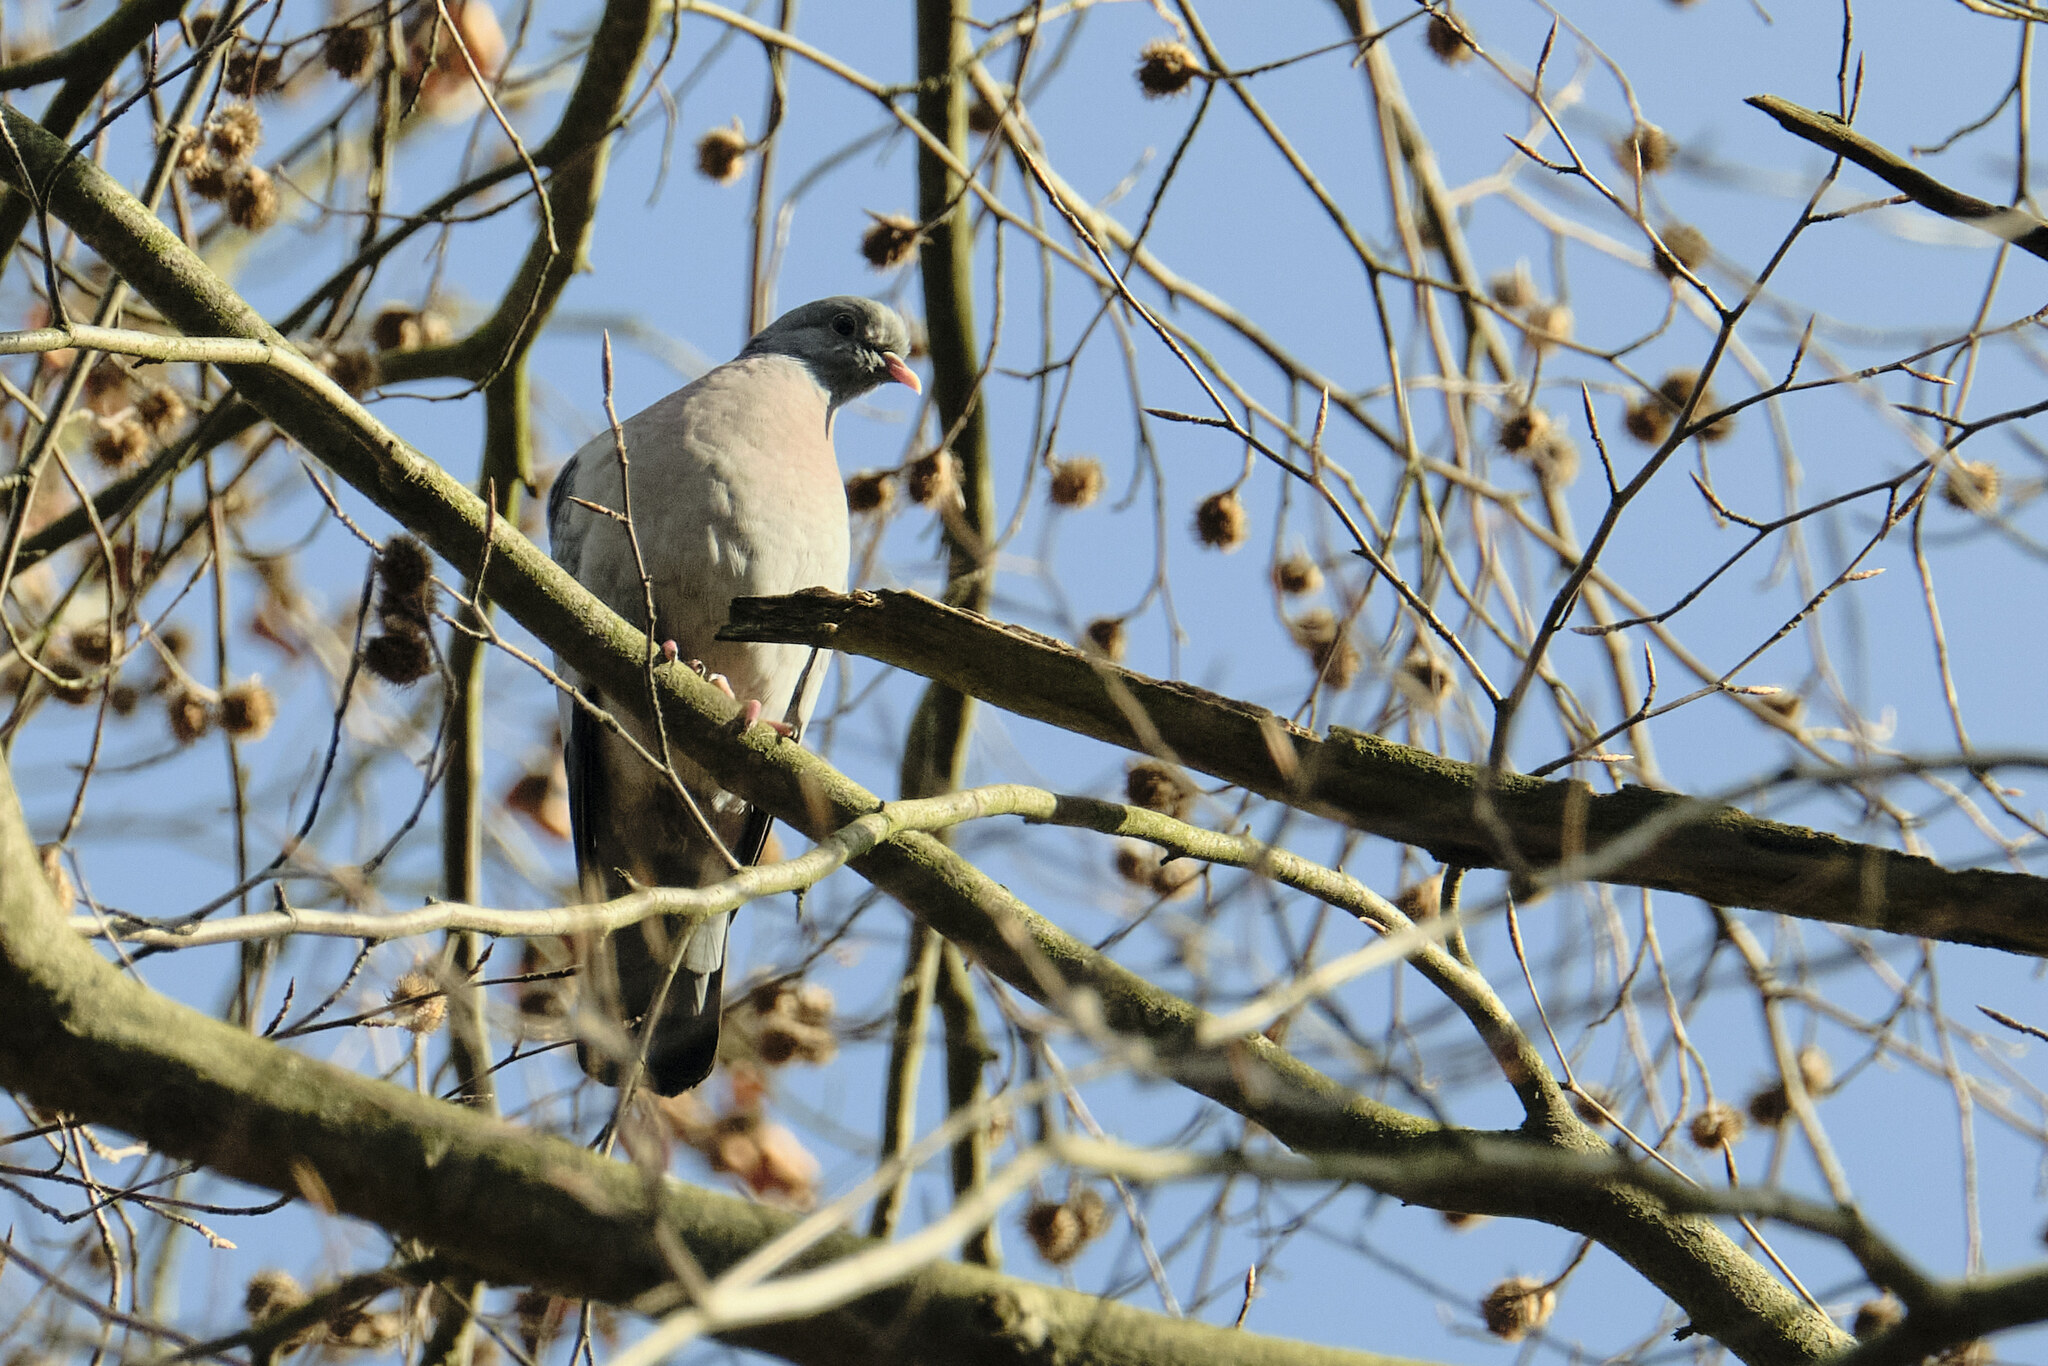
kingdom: Animalia
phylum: Chordata
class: Aves
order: Columbiformes
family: Columbidae
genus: Columba
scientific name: Columba oenas
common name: Stock dove
